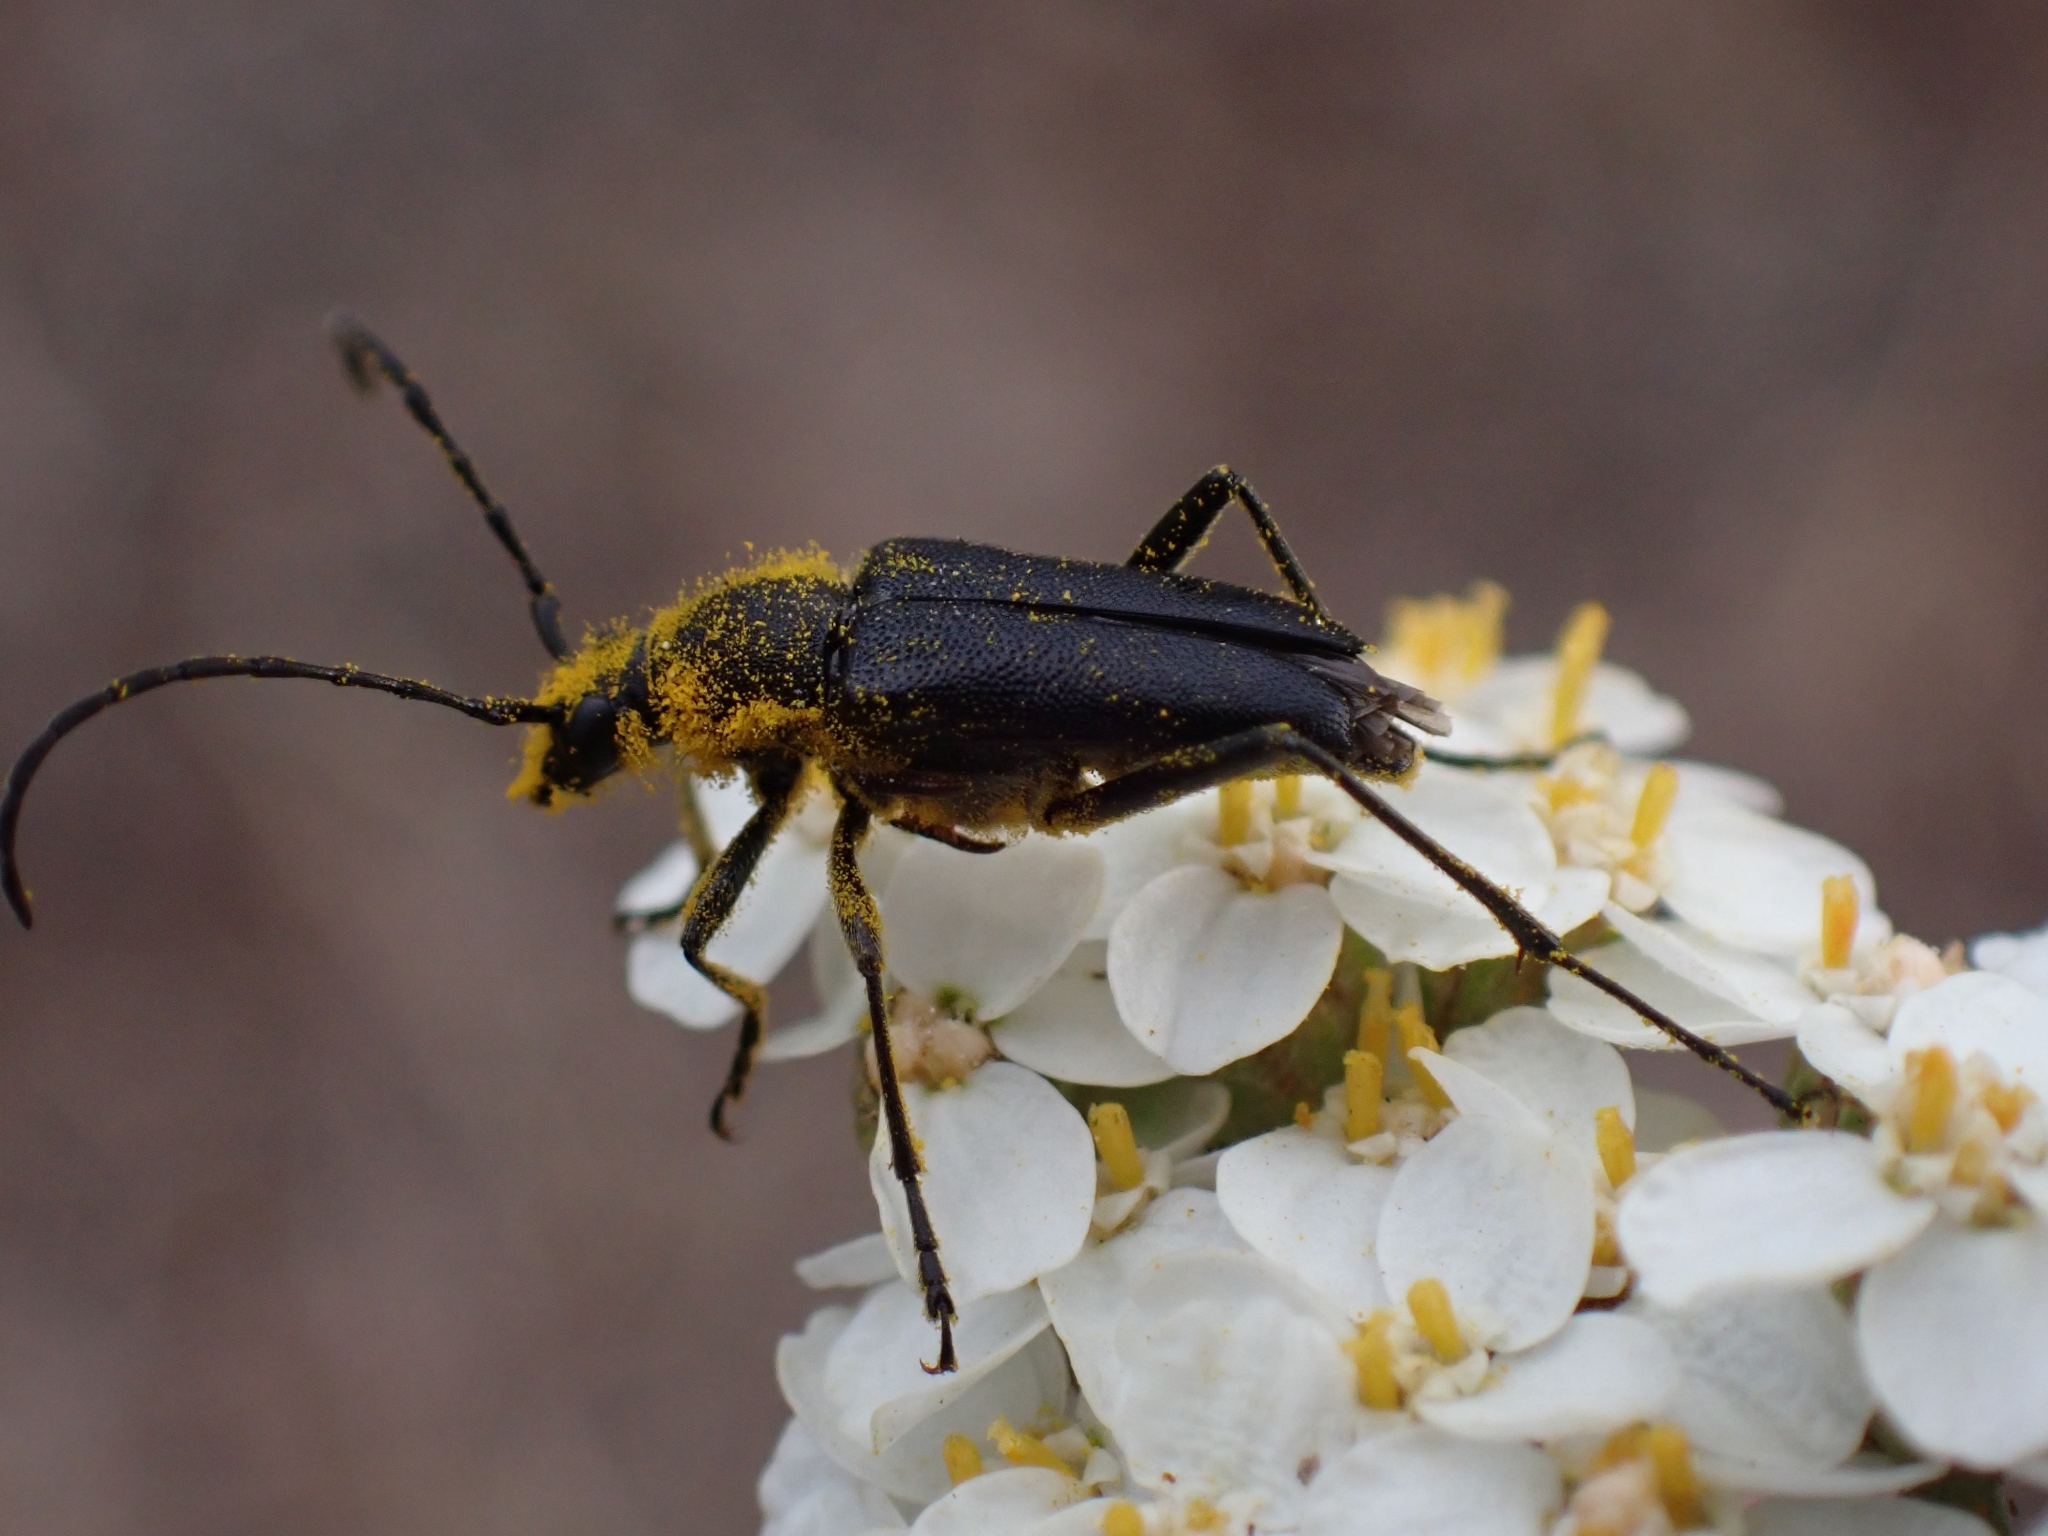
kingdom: Animalia
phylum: Arthropoda
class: Insecta
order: Coleoptera
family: Cerambycidae
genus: Anastrangalia
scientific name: Anastrangalia laetifica
